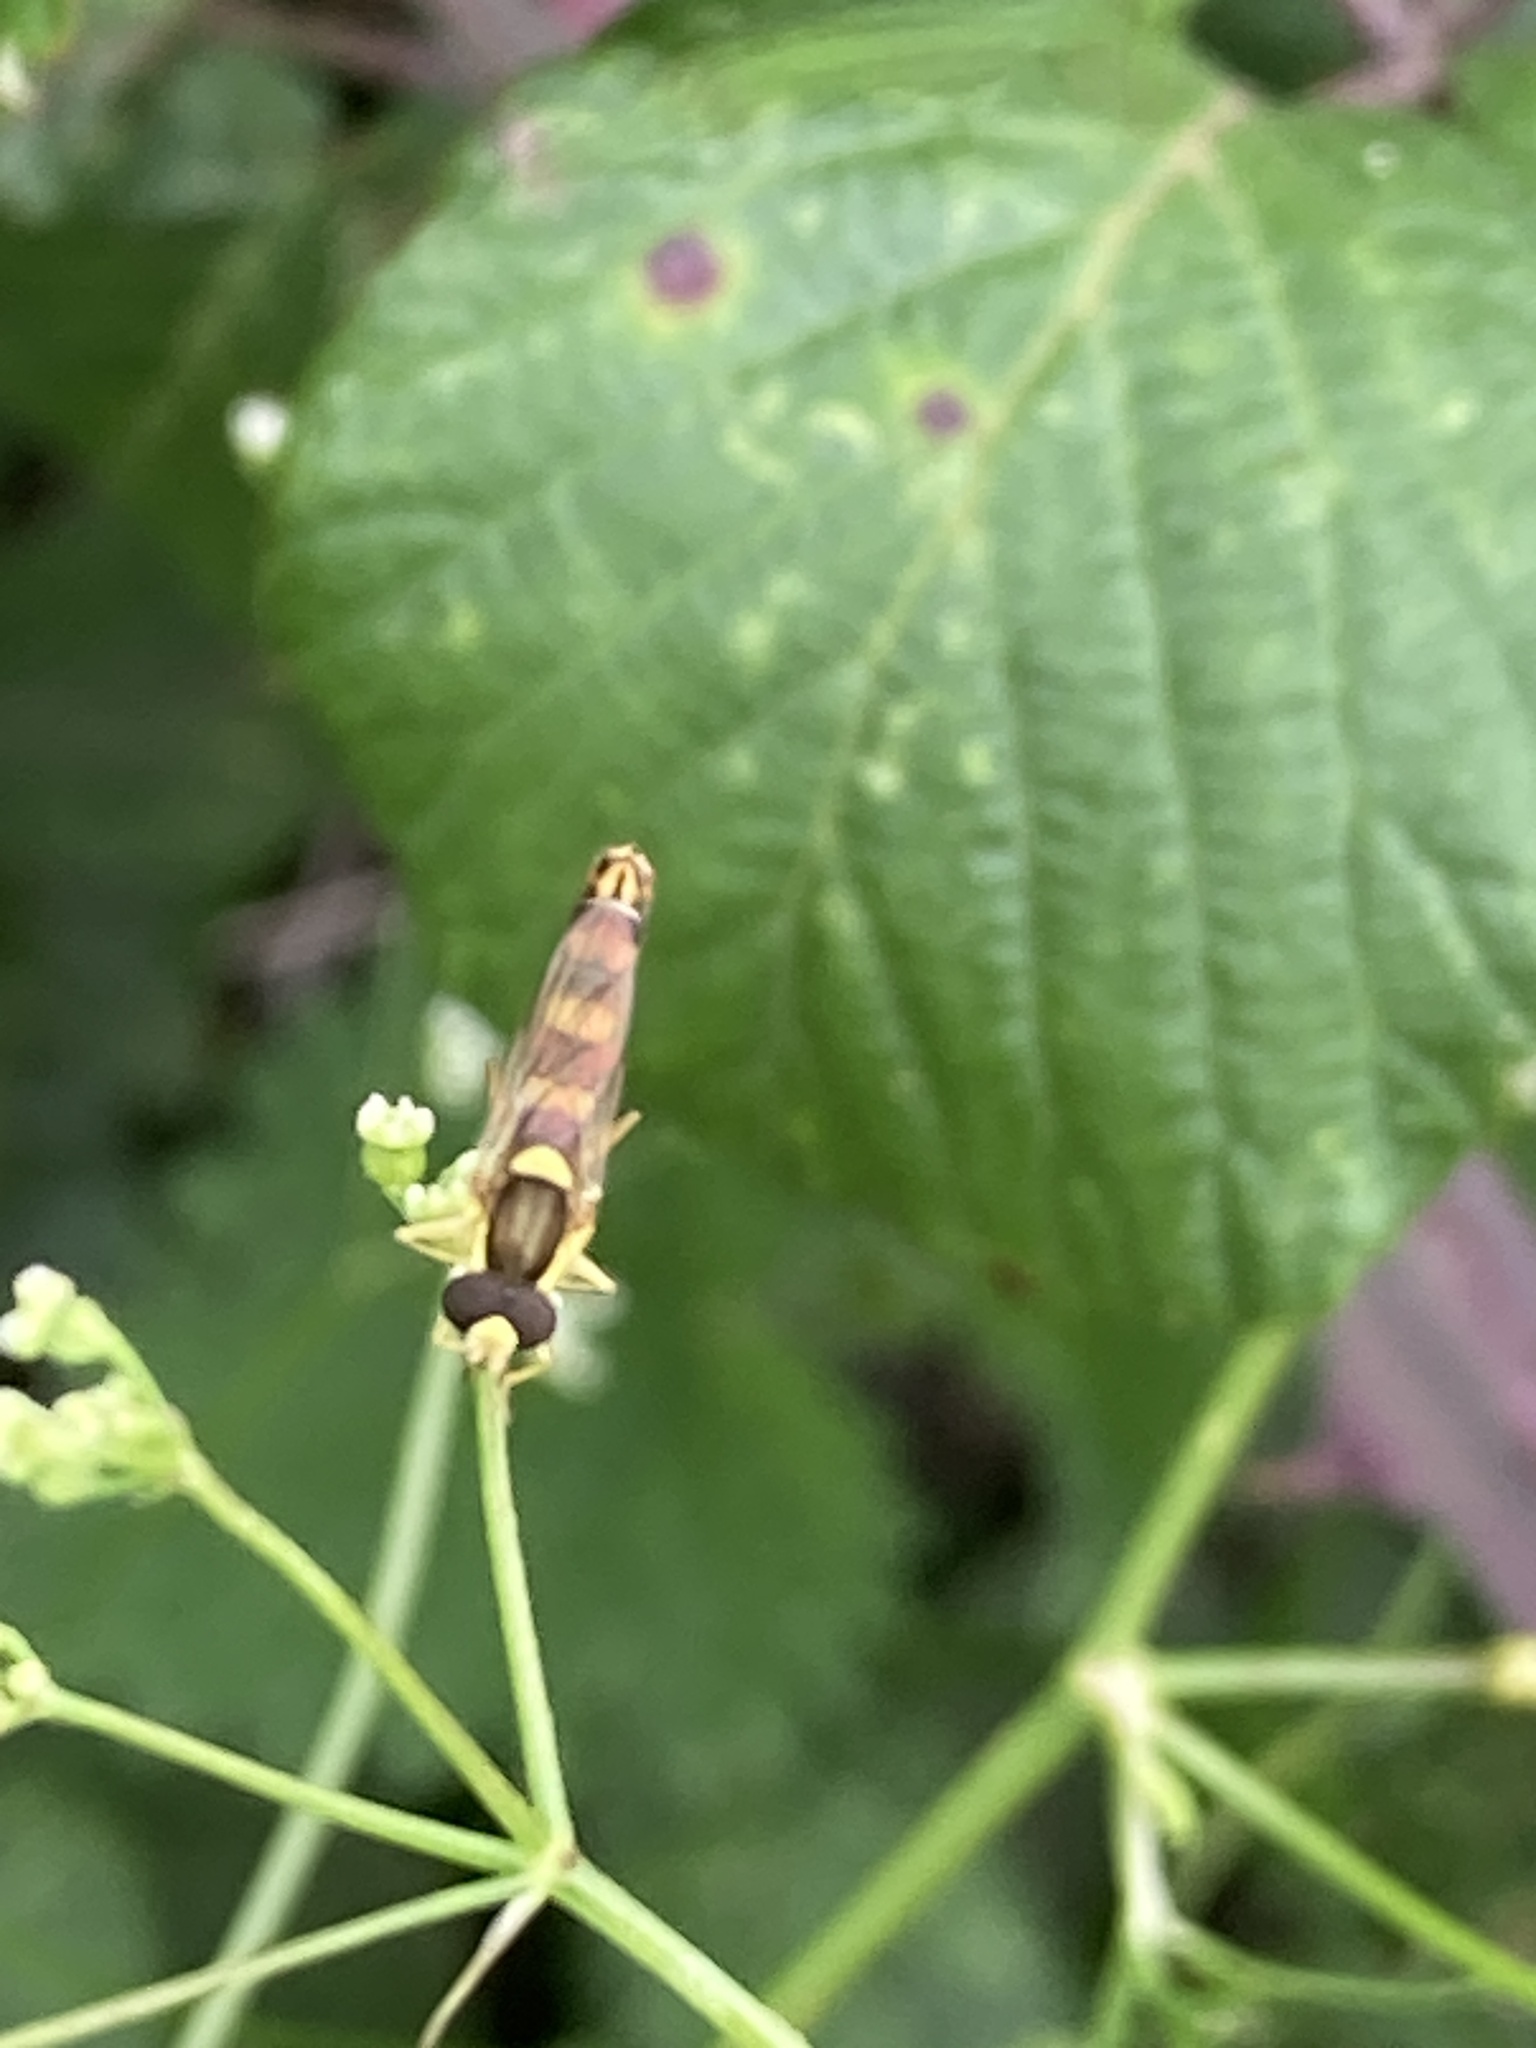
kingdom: Animalia
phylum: Arthropoda
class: Insecta
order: Diptera
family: Syrphidae
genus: Sphaerophoria
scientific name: Sphaerophoria scripta
